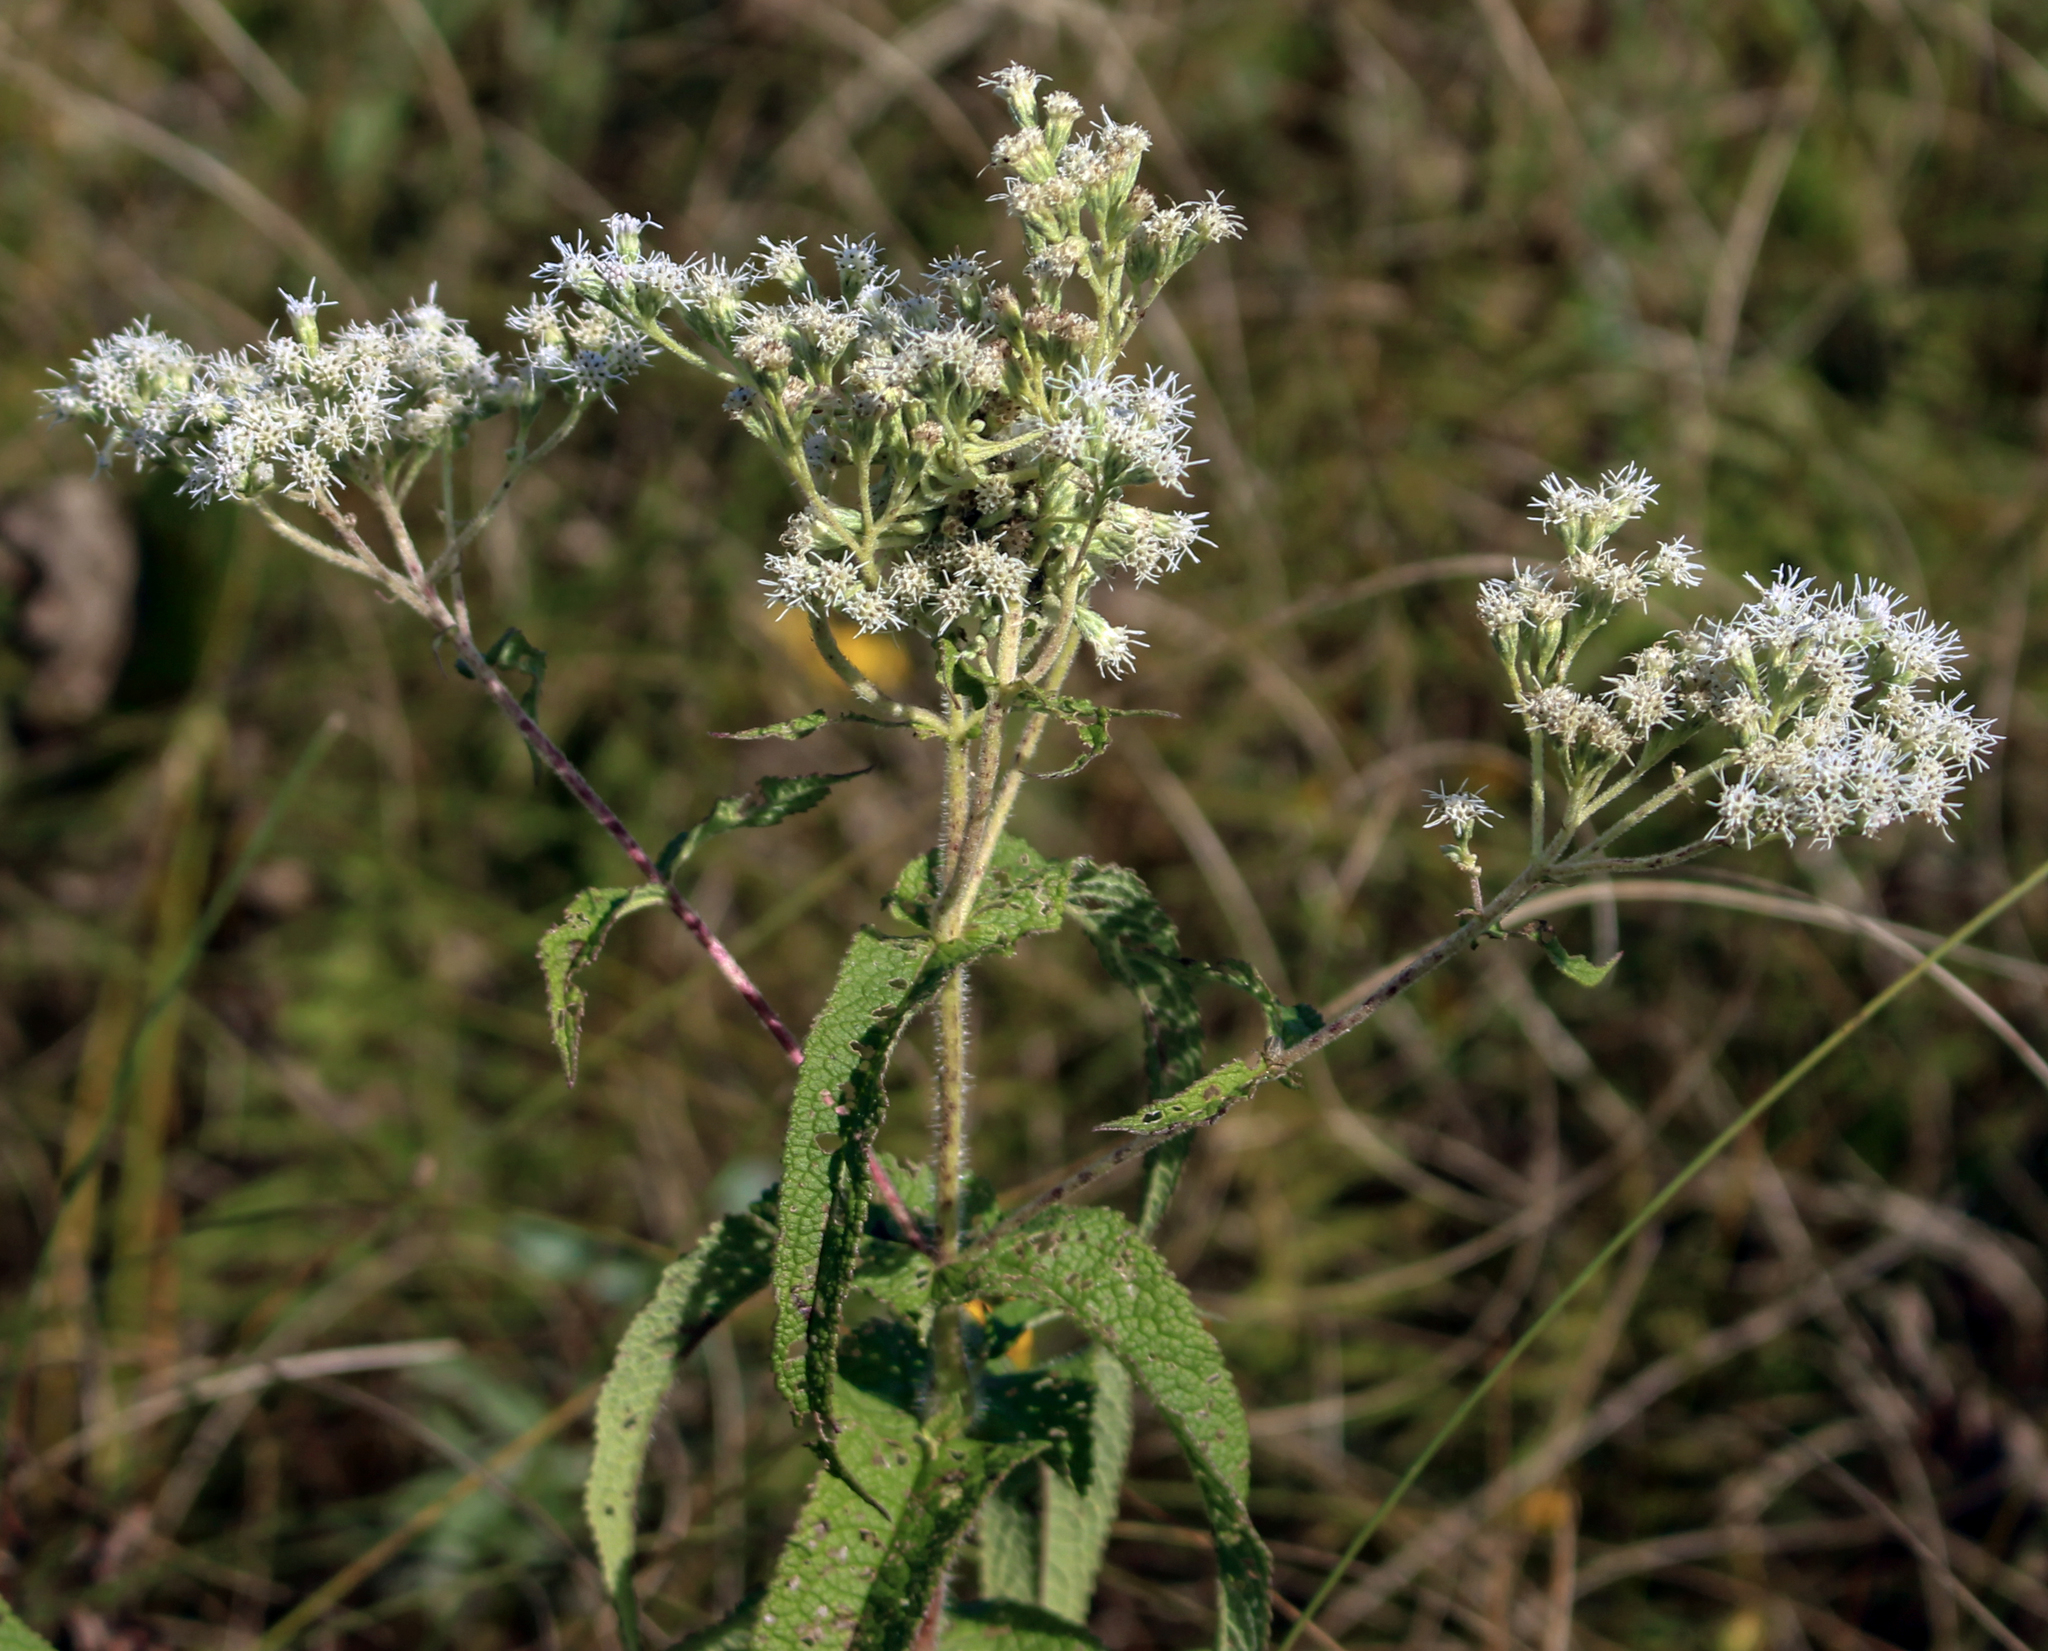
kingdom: Plantae
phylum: Tracheophyta
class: Magnoliopsida
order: Asterales
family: Asteraceae
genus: Eupatorium
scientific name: Eupatorium perfoliatum
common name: Boneset
